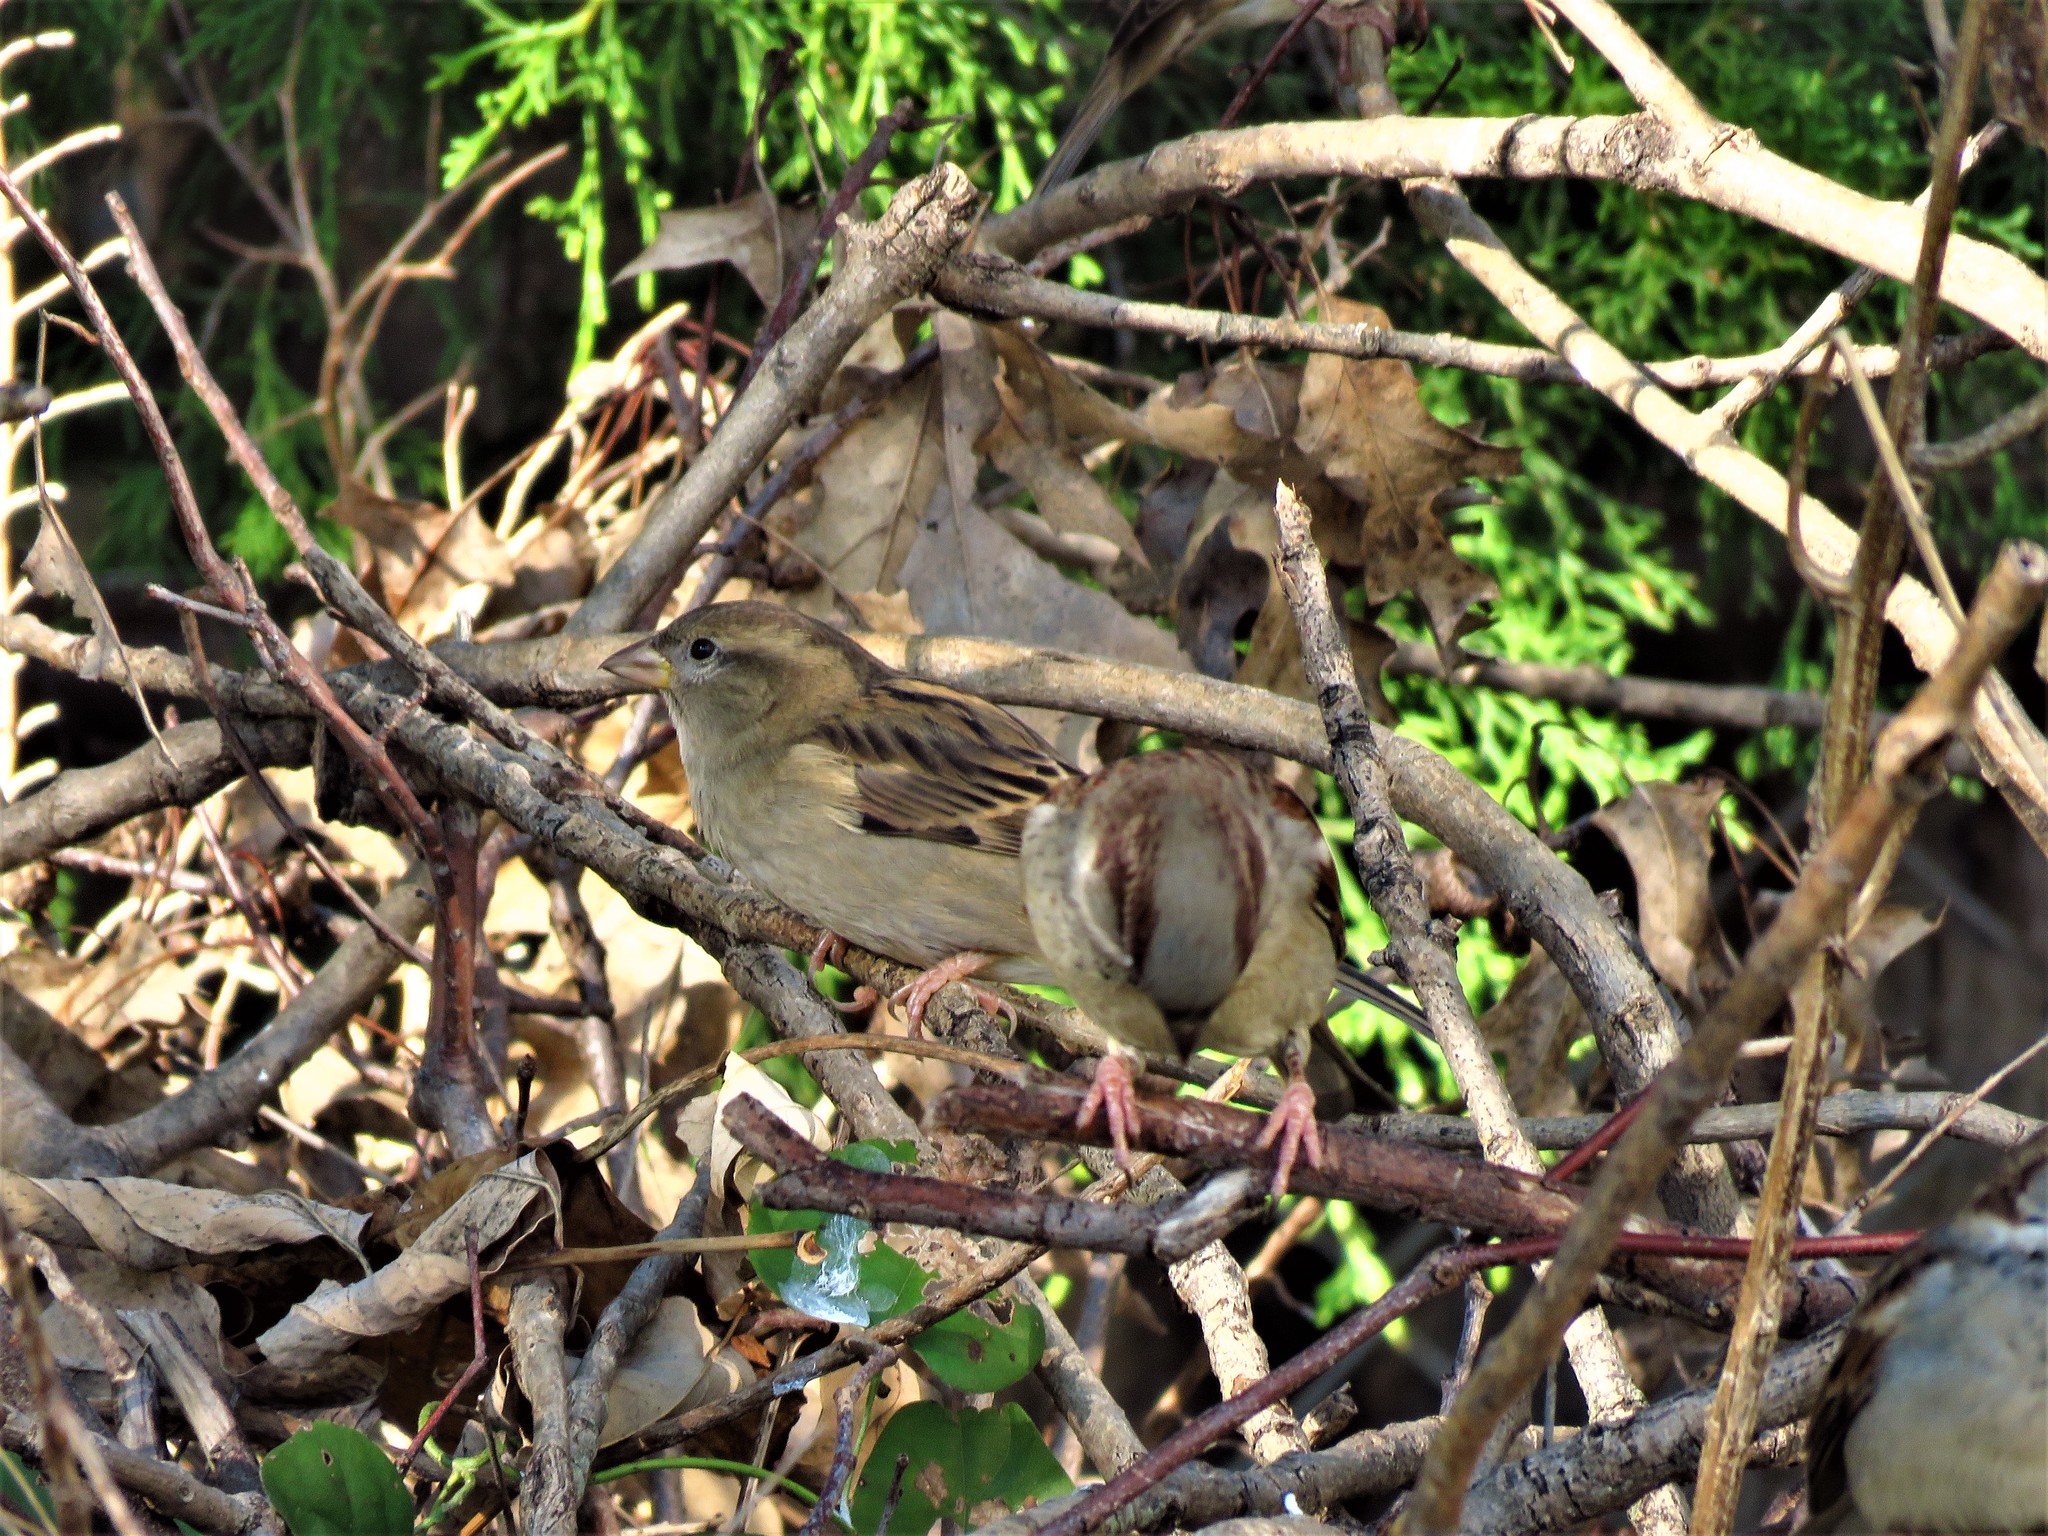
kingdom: Animalia
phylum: Chordata
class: Aves
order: Passeriformes
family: Passeridae
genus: Passer
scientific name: Passer domesticus
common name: House sparrow
